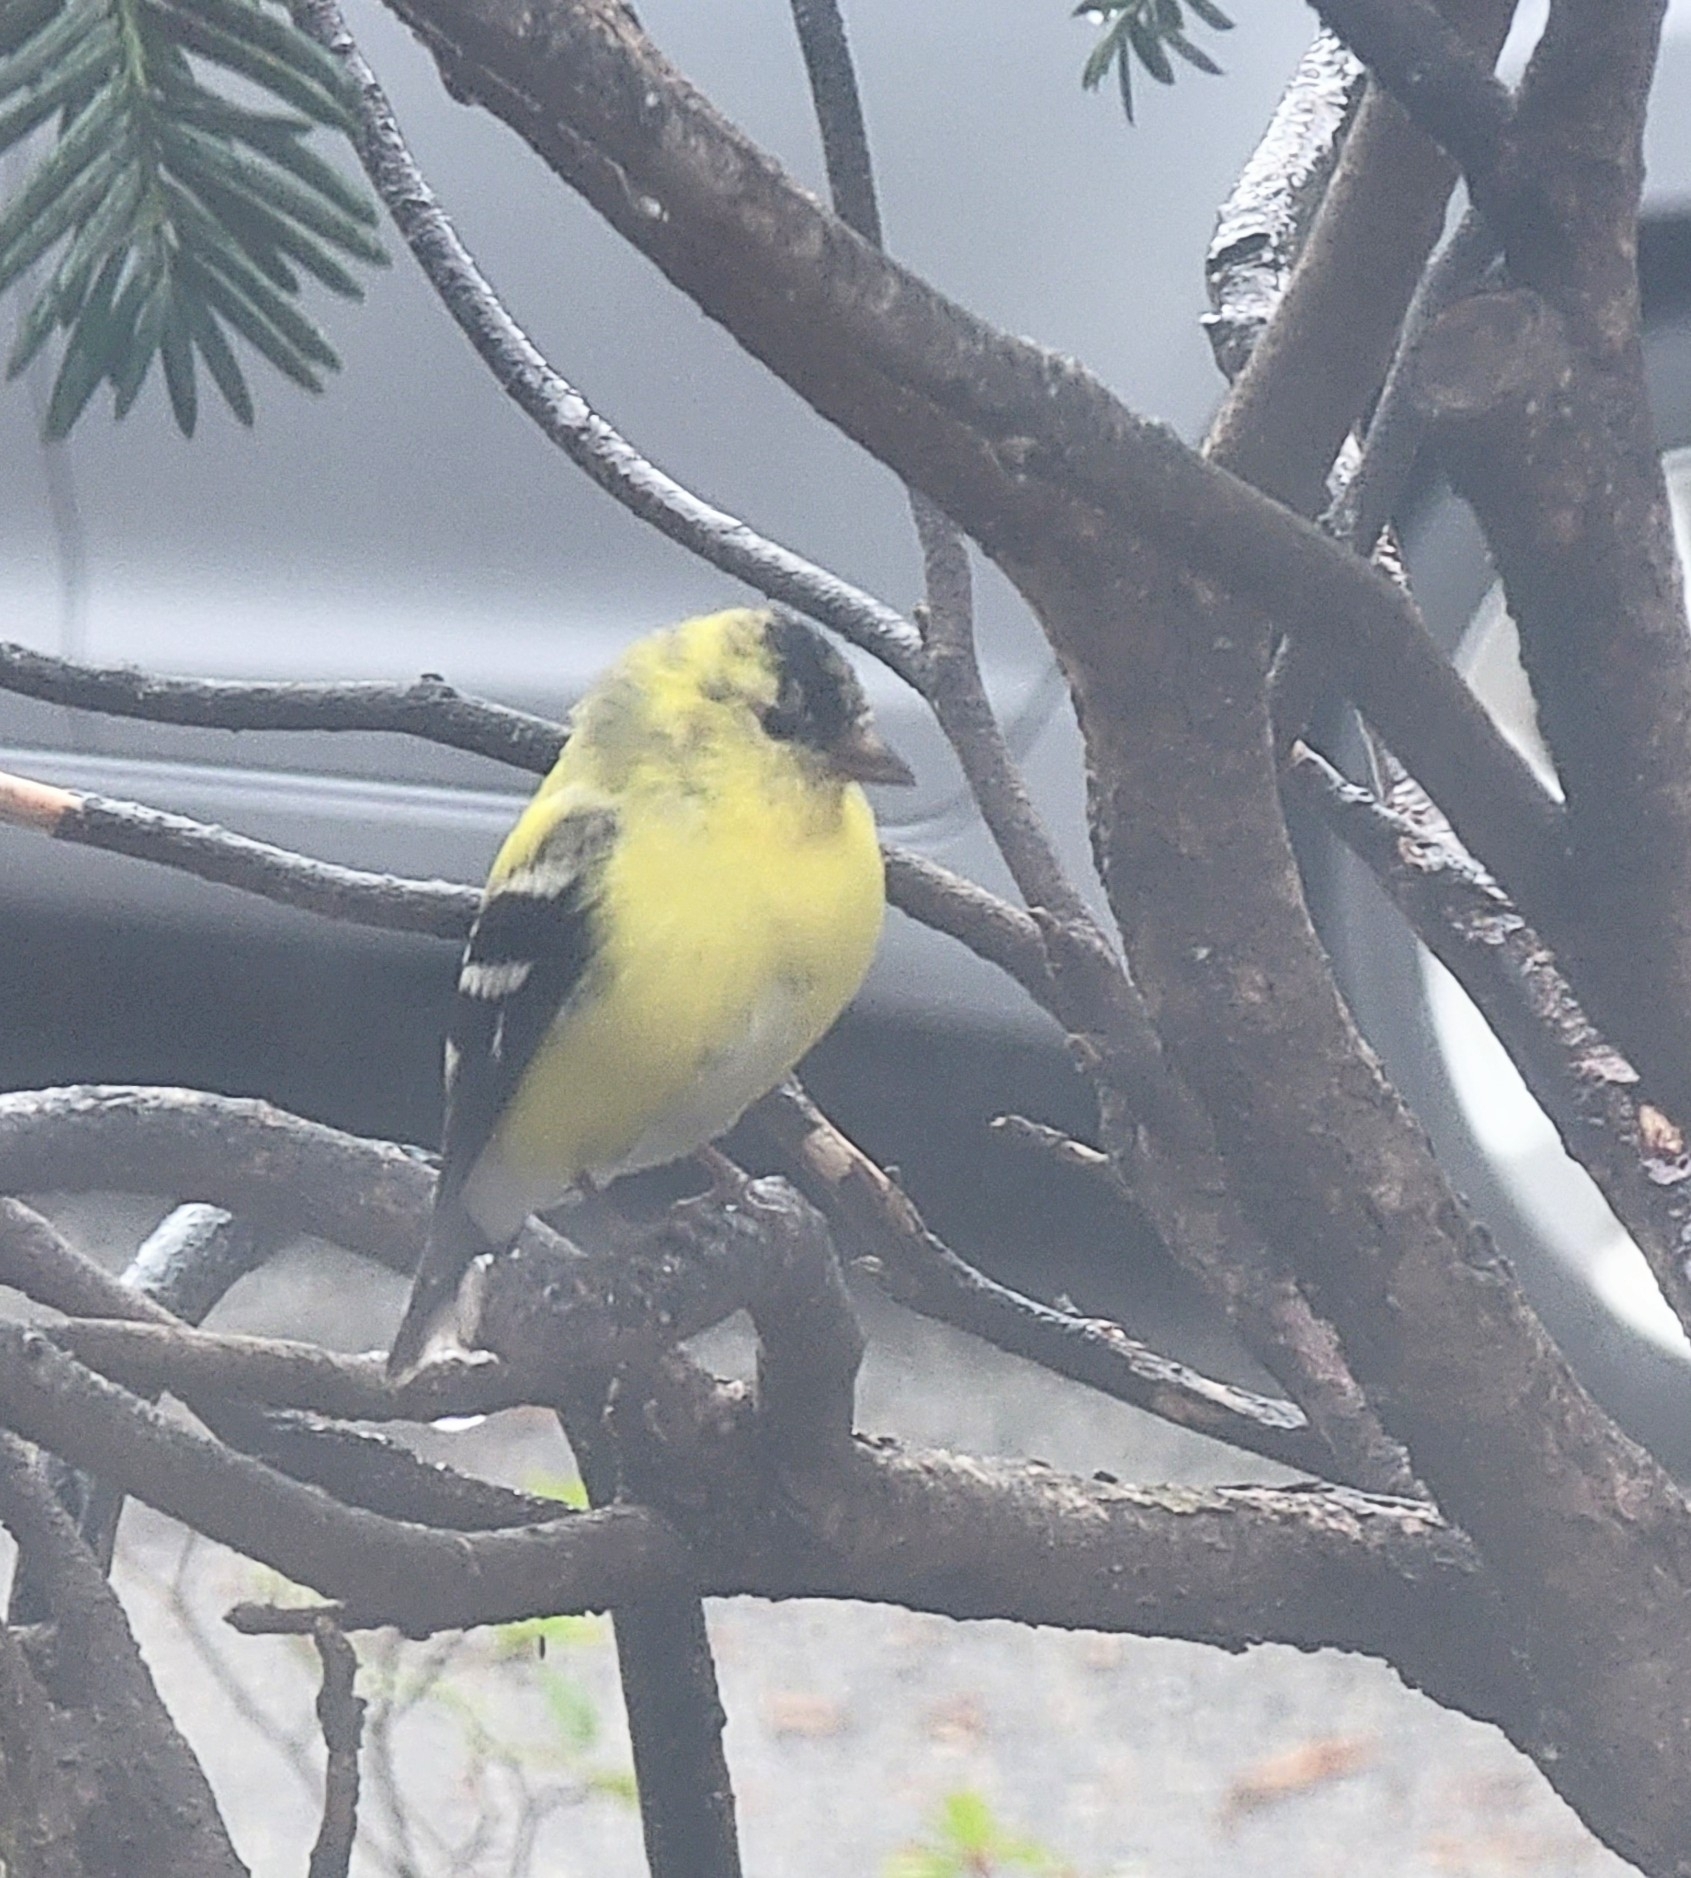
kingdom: Animalia
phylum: Chordata
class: Aves
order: Passeriformes
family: Fringillidae
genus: Spinus
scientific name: Spinus tristis
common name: American goldfinch
